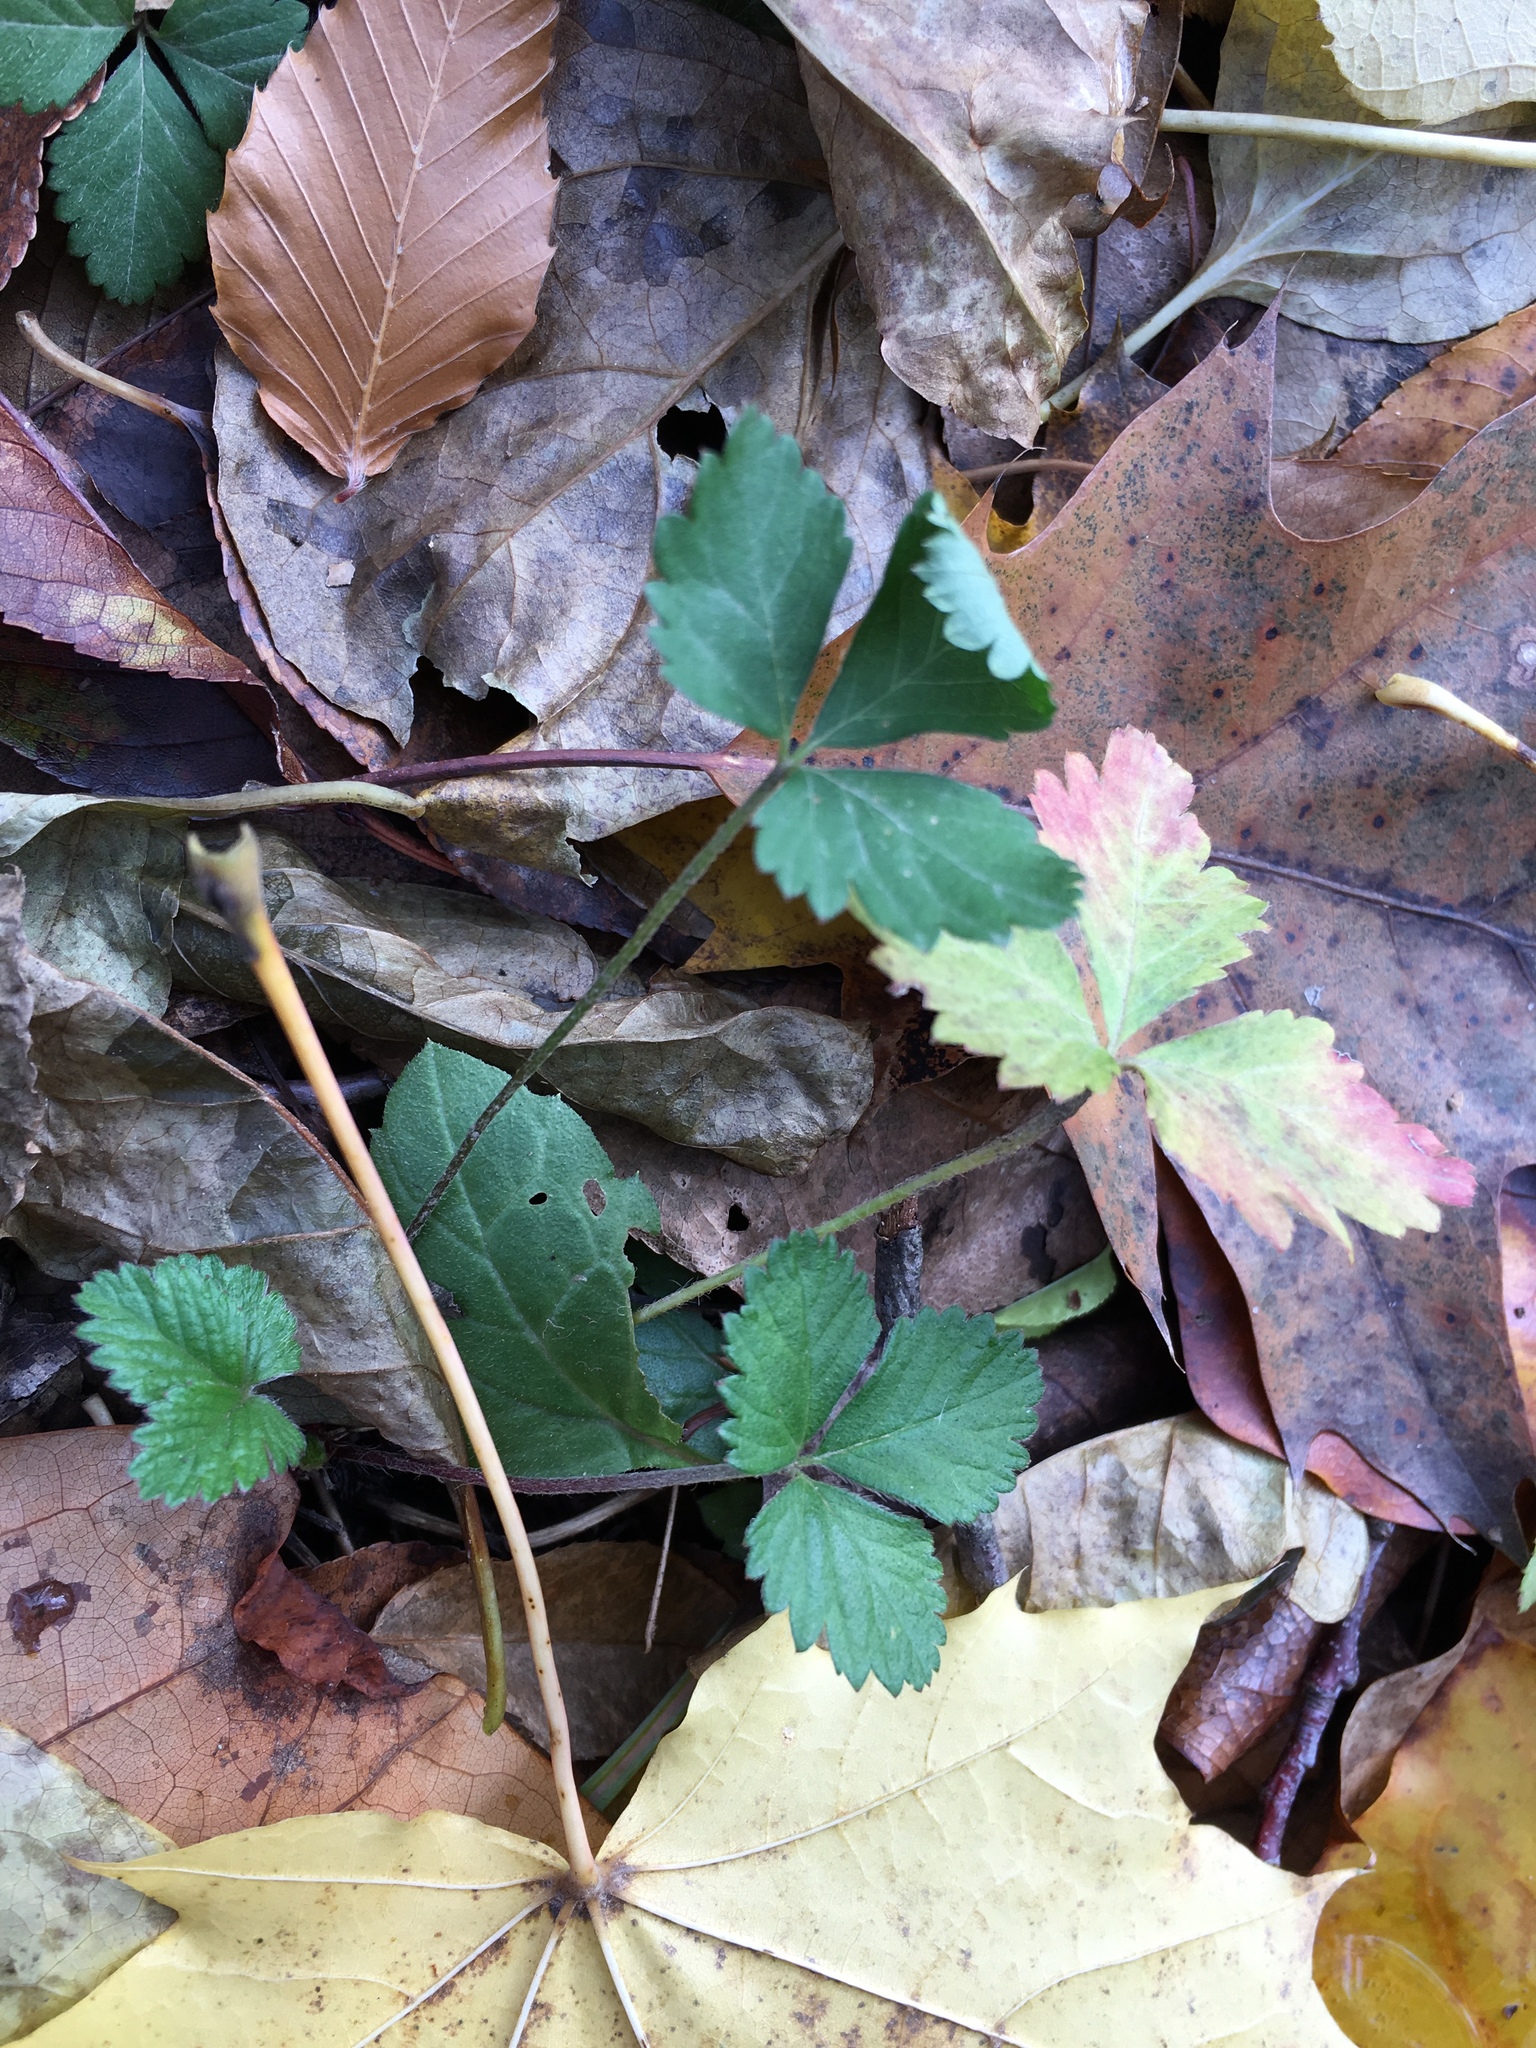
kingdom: Plantae
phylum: Tracheophyta
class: Magnoliopsida
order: Rosales
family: Rosaceae
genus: Potentilla
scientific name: Potentilla indica
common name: Yellow-flowered strawberry
